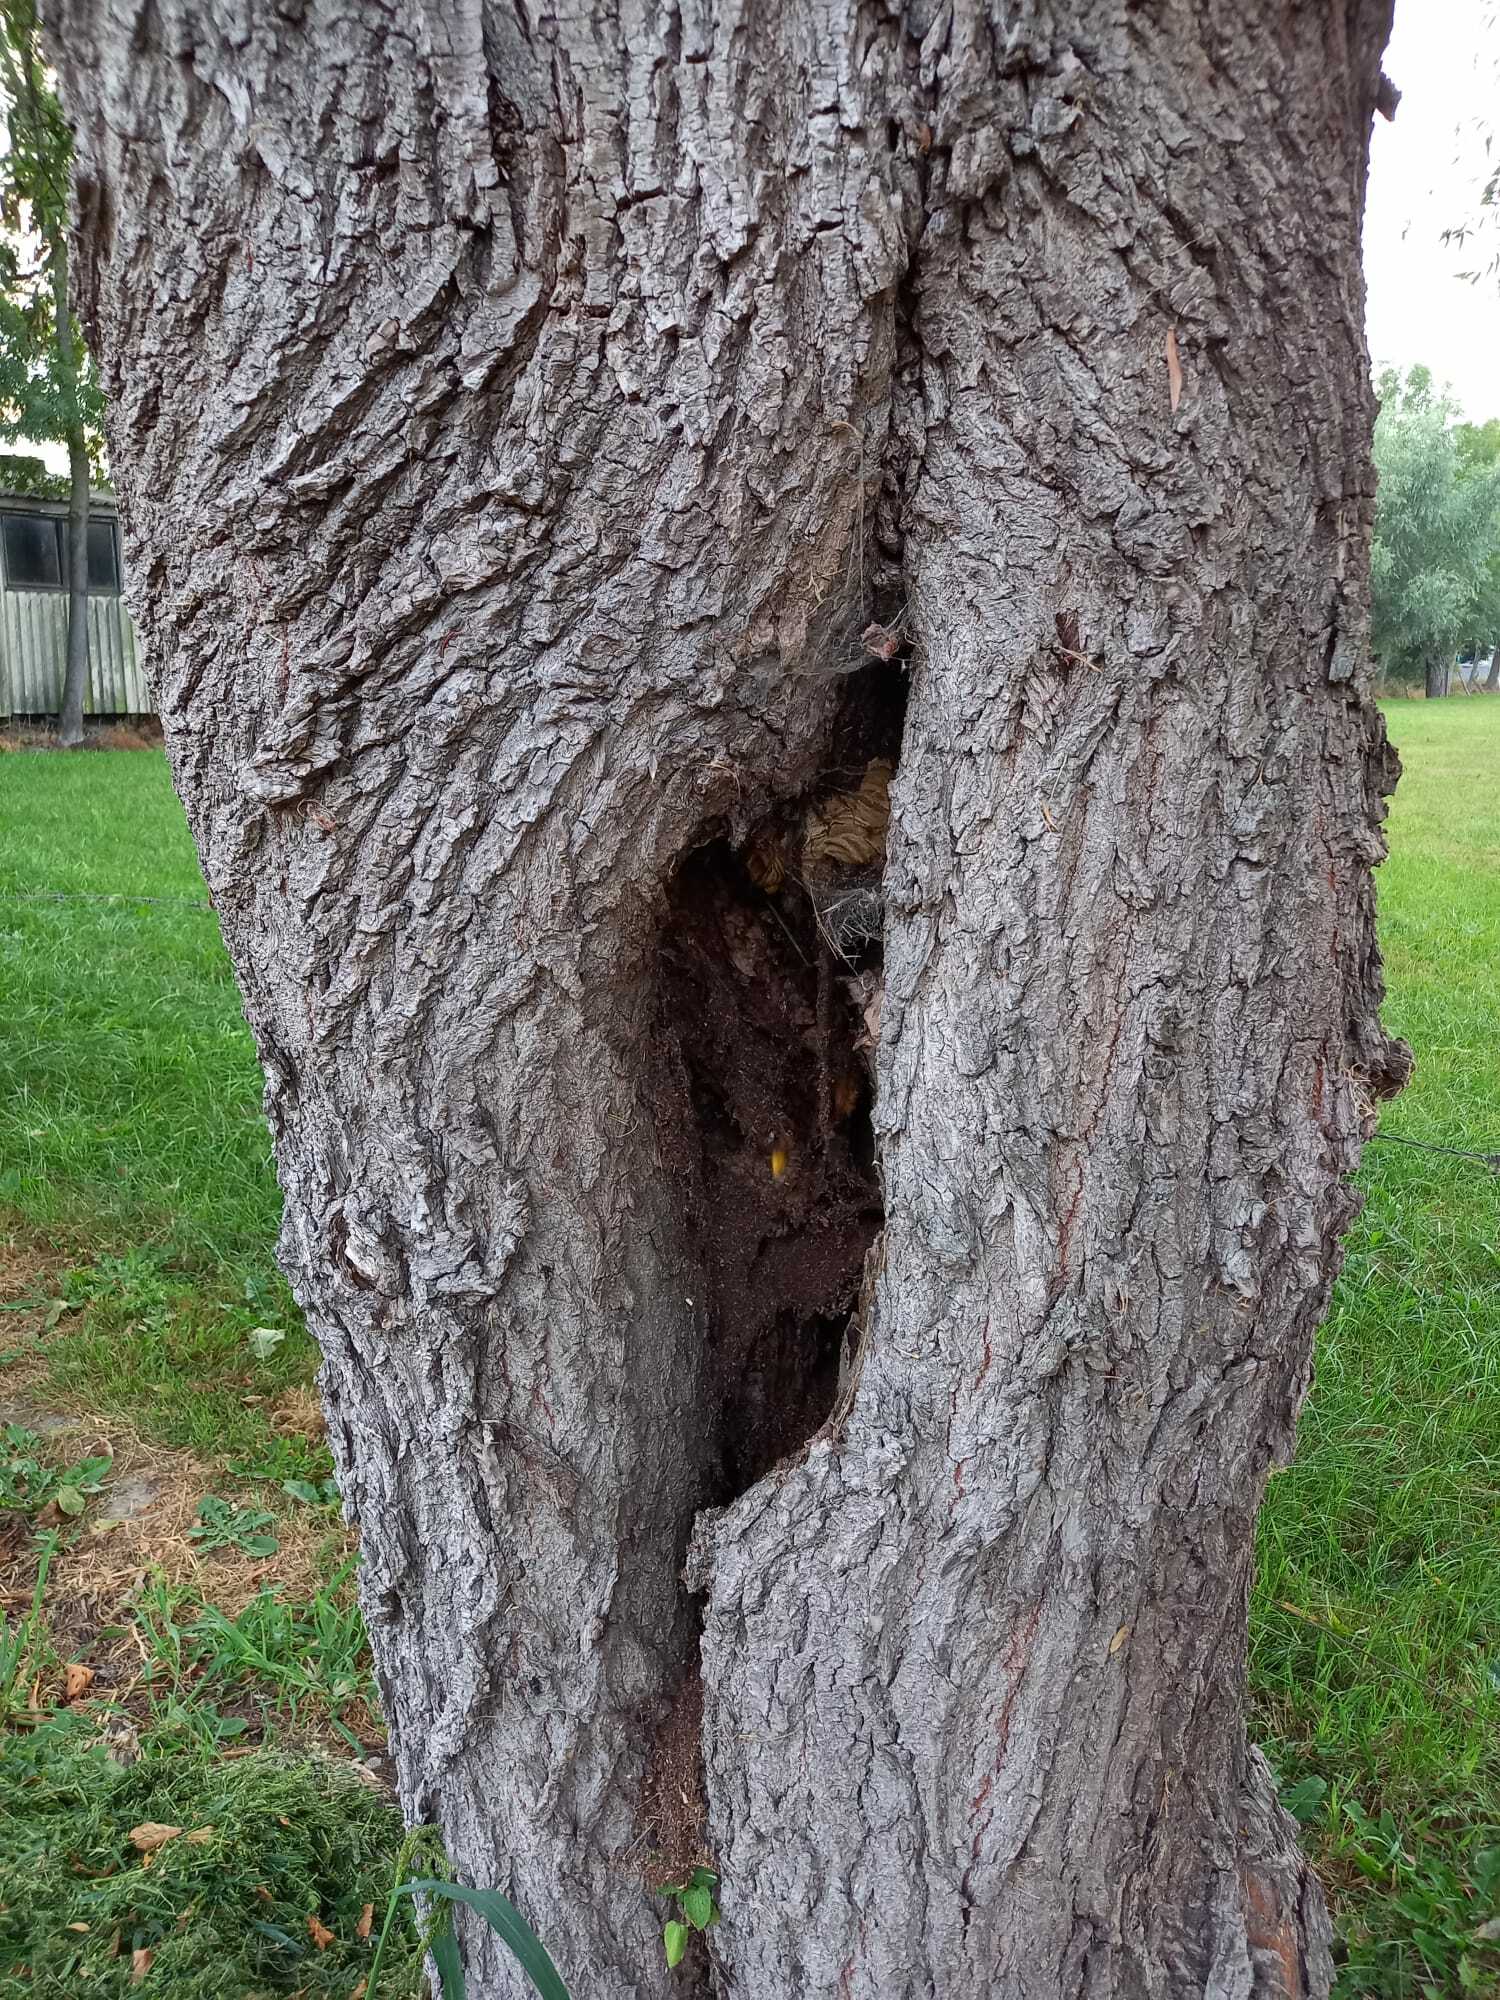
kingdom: Animalia
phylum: Arthropoda
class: Insecta
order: Hymenoptera
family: Vespidae
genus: Vespa
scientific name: Vespa crabro
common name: Hornet
